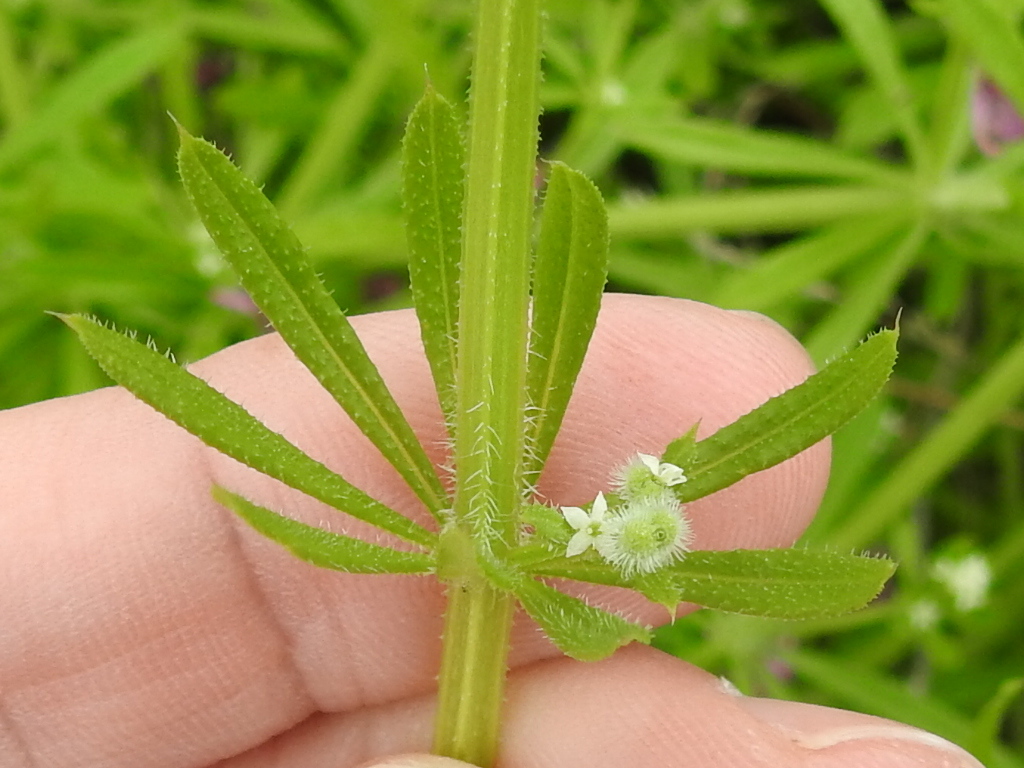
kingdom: Plantae
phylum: Tracheophyta
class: Magnoliopsida
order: Gentianales
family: Rubiaceae
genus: Galium
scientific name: Galium aparine
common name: Cleavers
